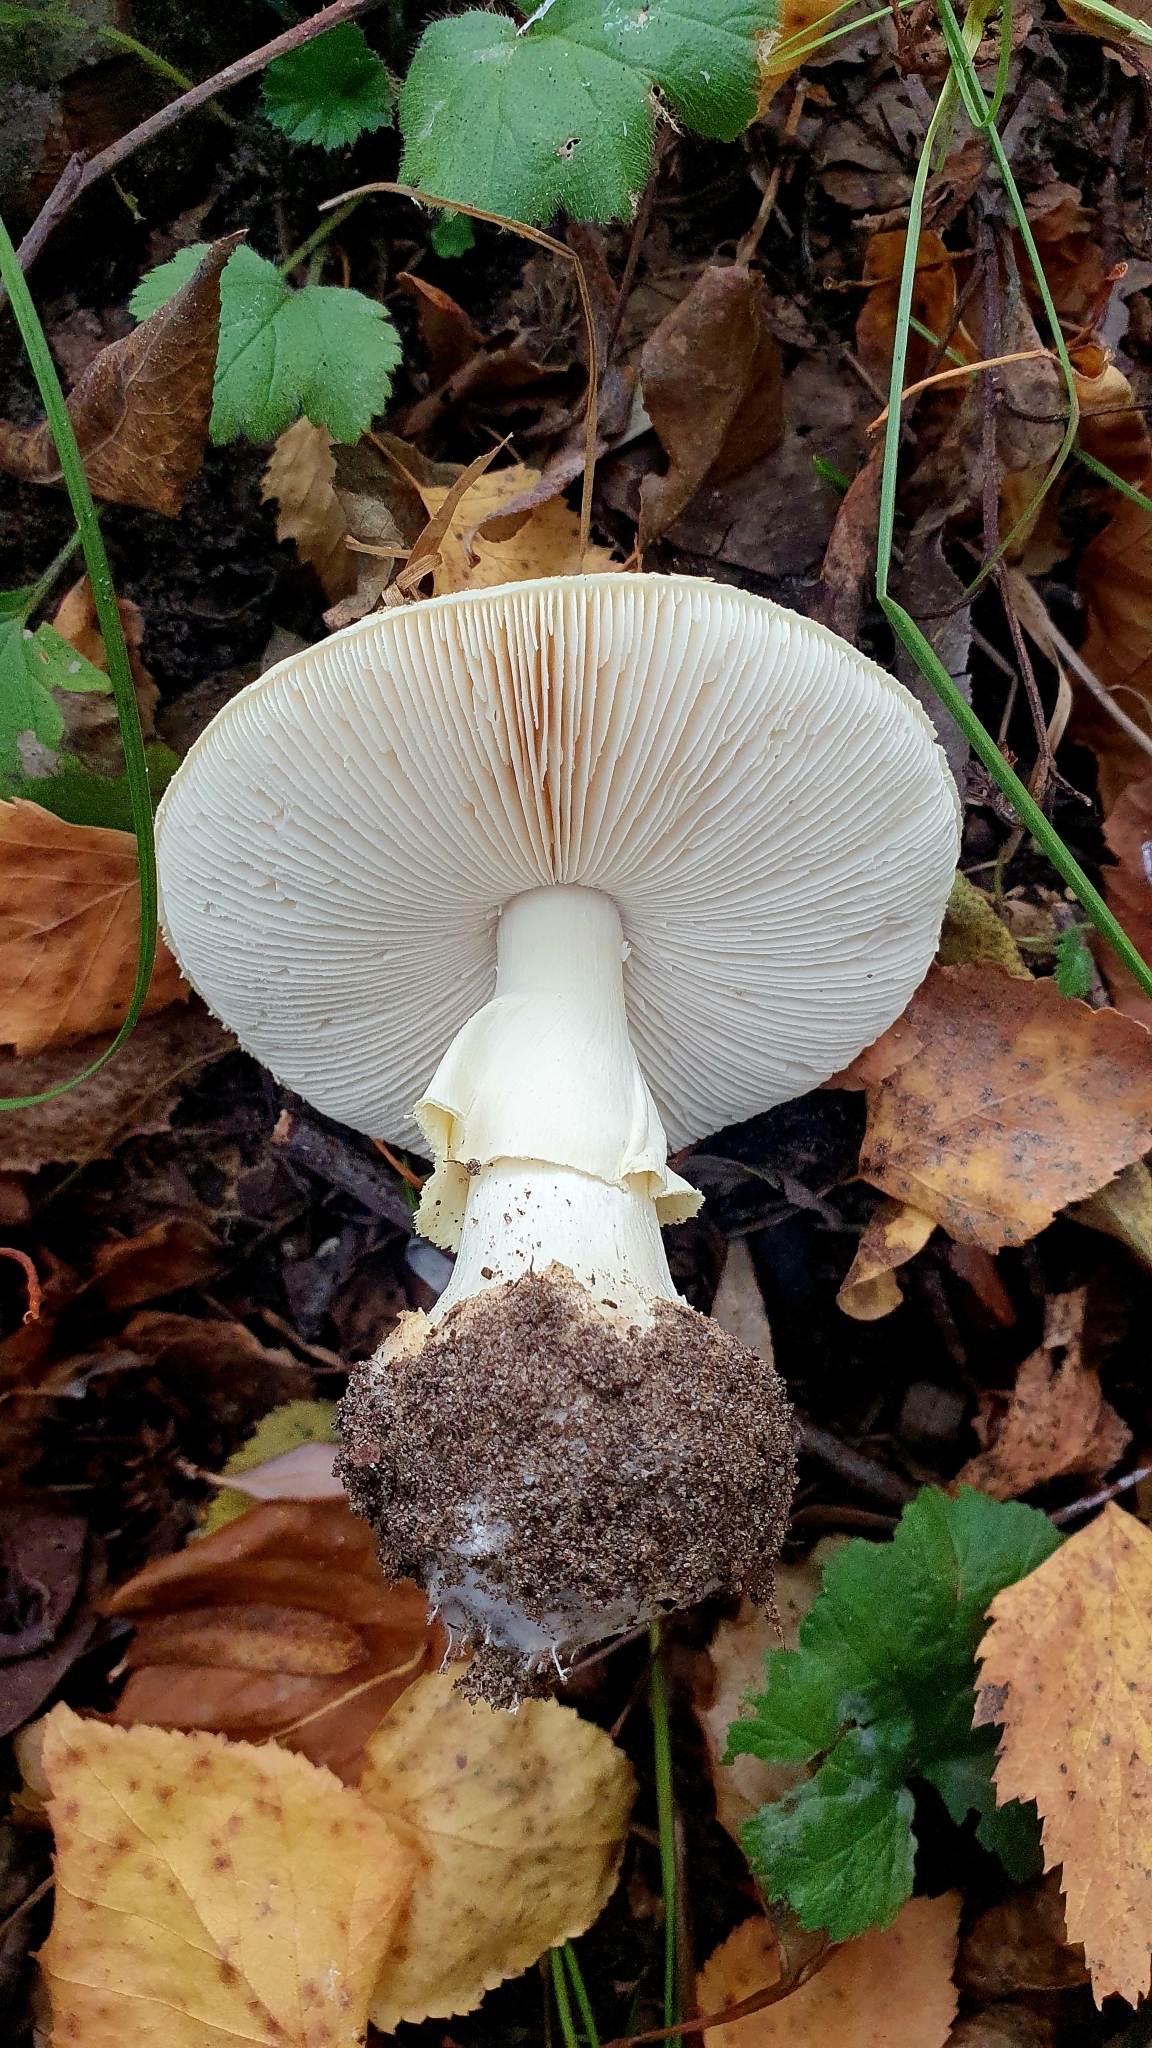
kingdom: Fungi
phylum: Basidiomycota
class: Agaricomycetes
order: Agaricales
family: Amanitaceae
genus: Amanita
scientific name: Amanita citrina
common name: False death-cap
